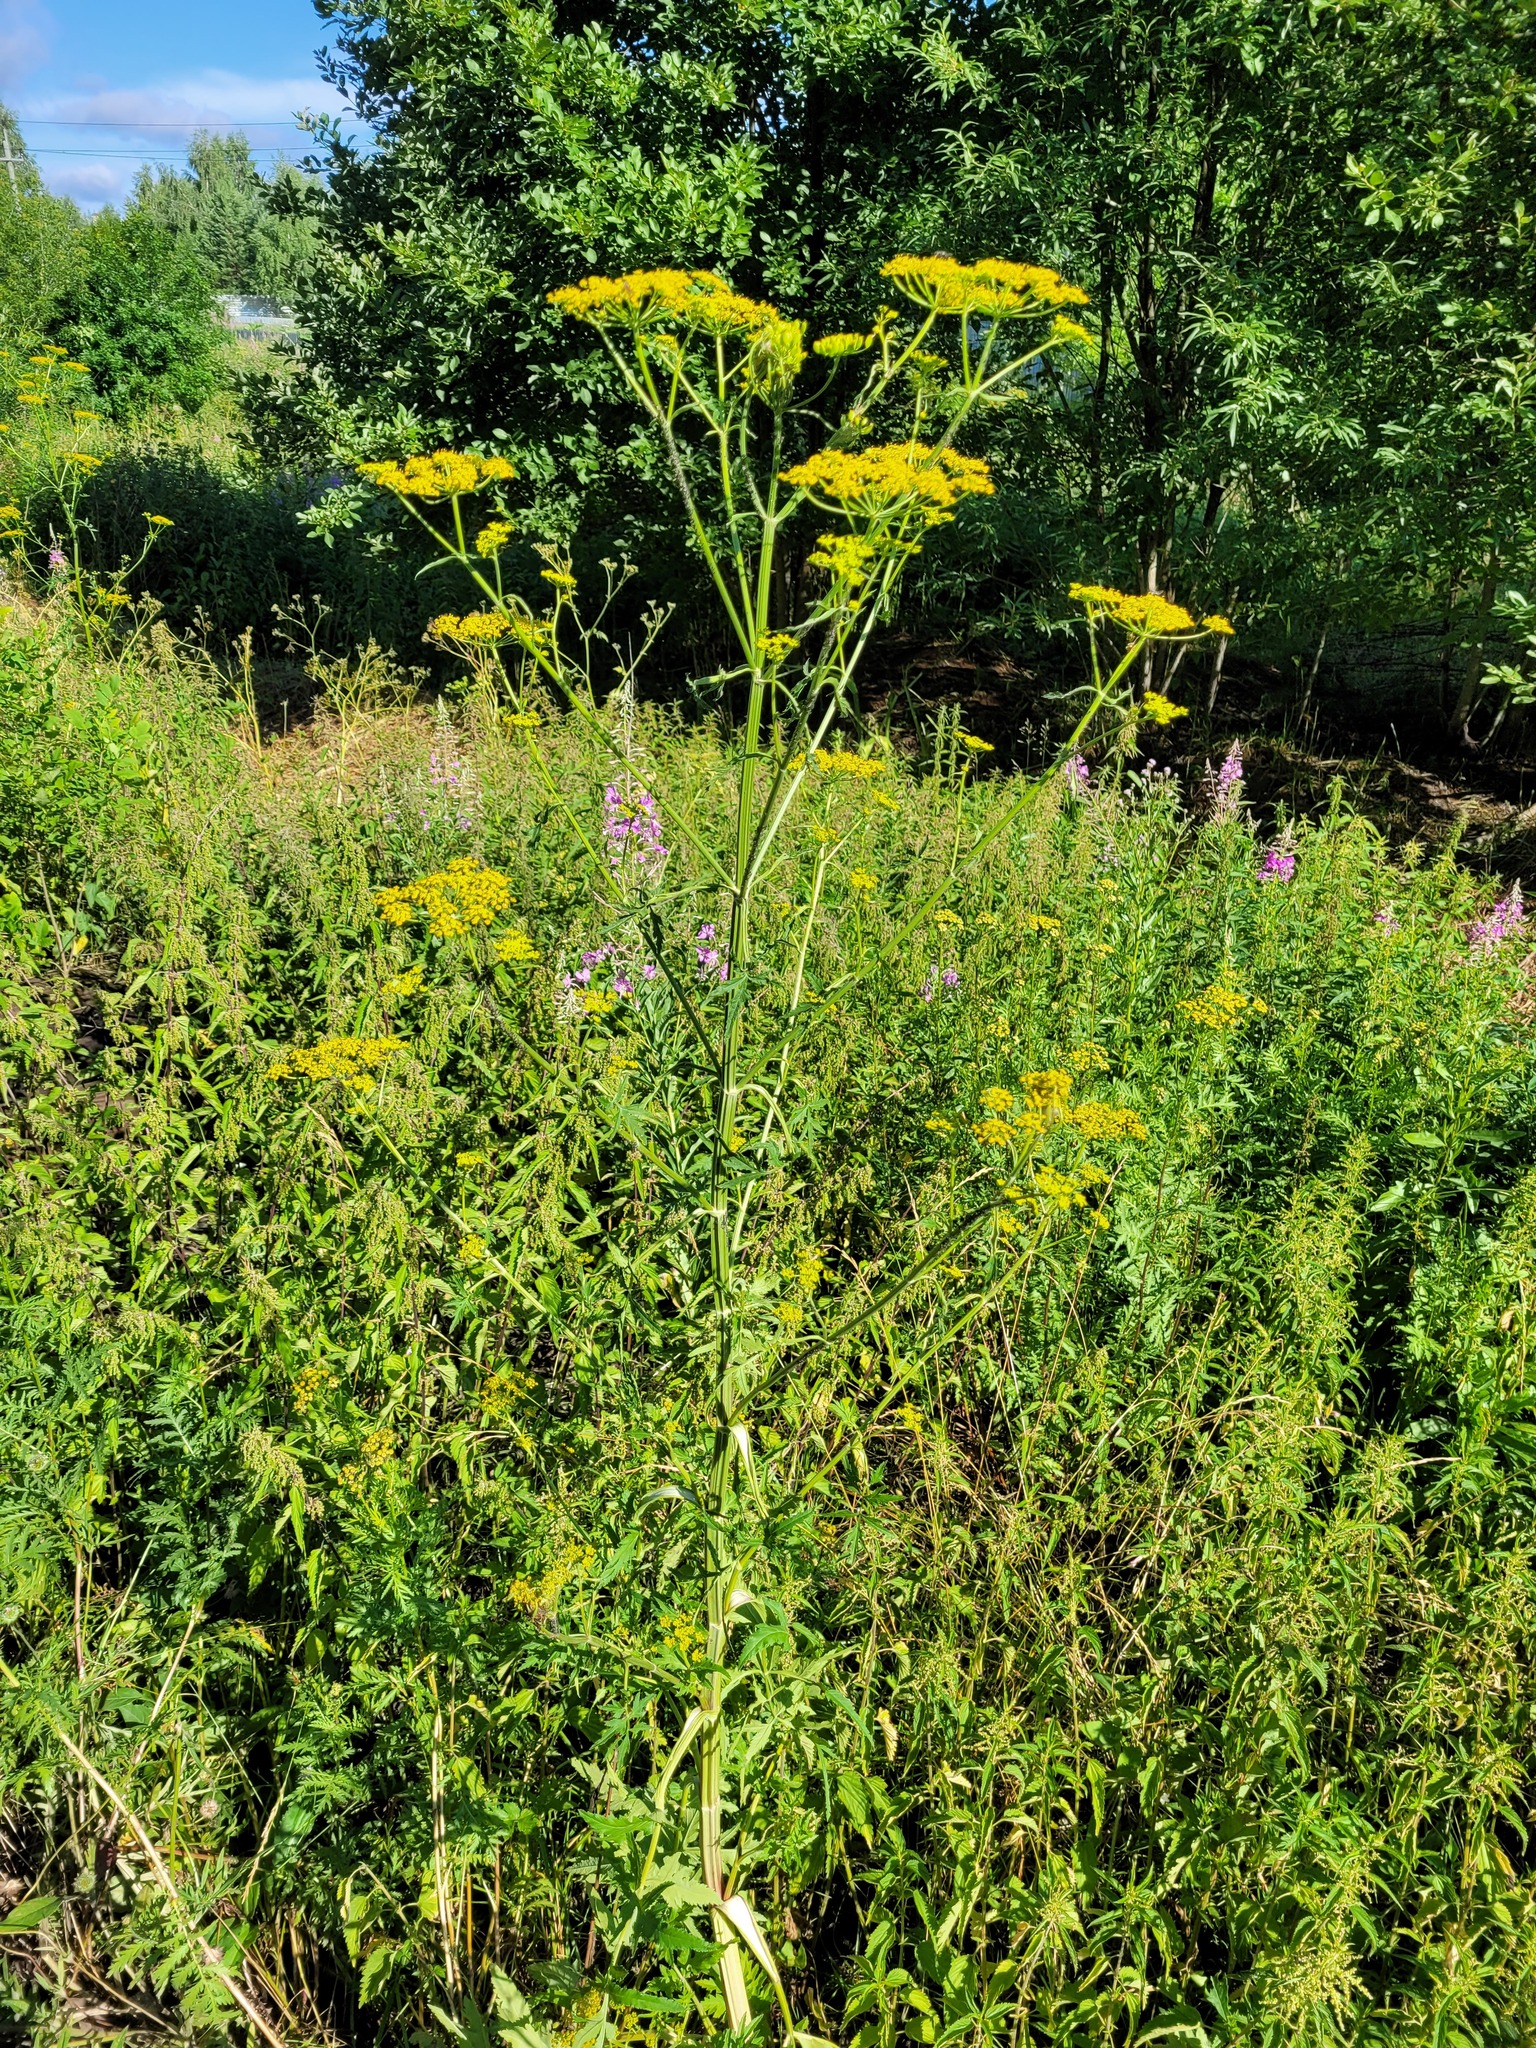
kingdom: Plantae
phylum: Tracheophyta
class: Magnoliopsida
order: Apiales
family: Apiaceae
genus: Pastinaca
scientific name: Pastinaca sativa
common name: Wild parsnip
